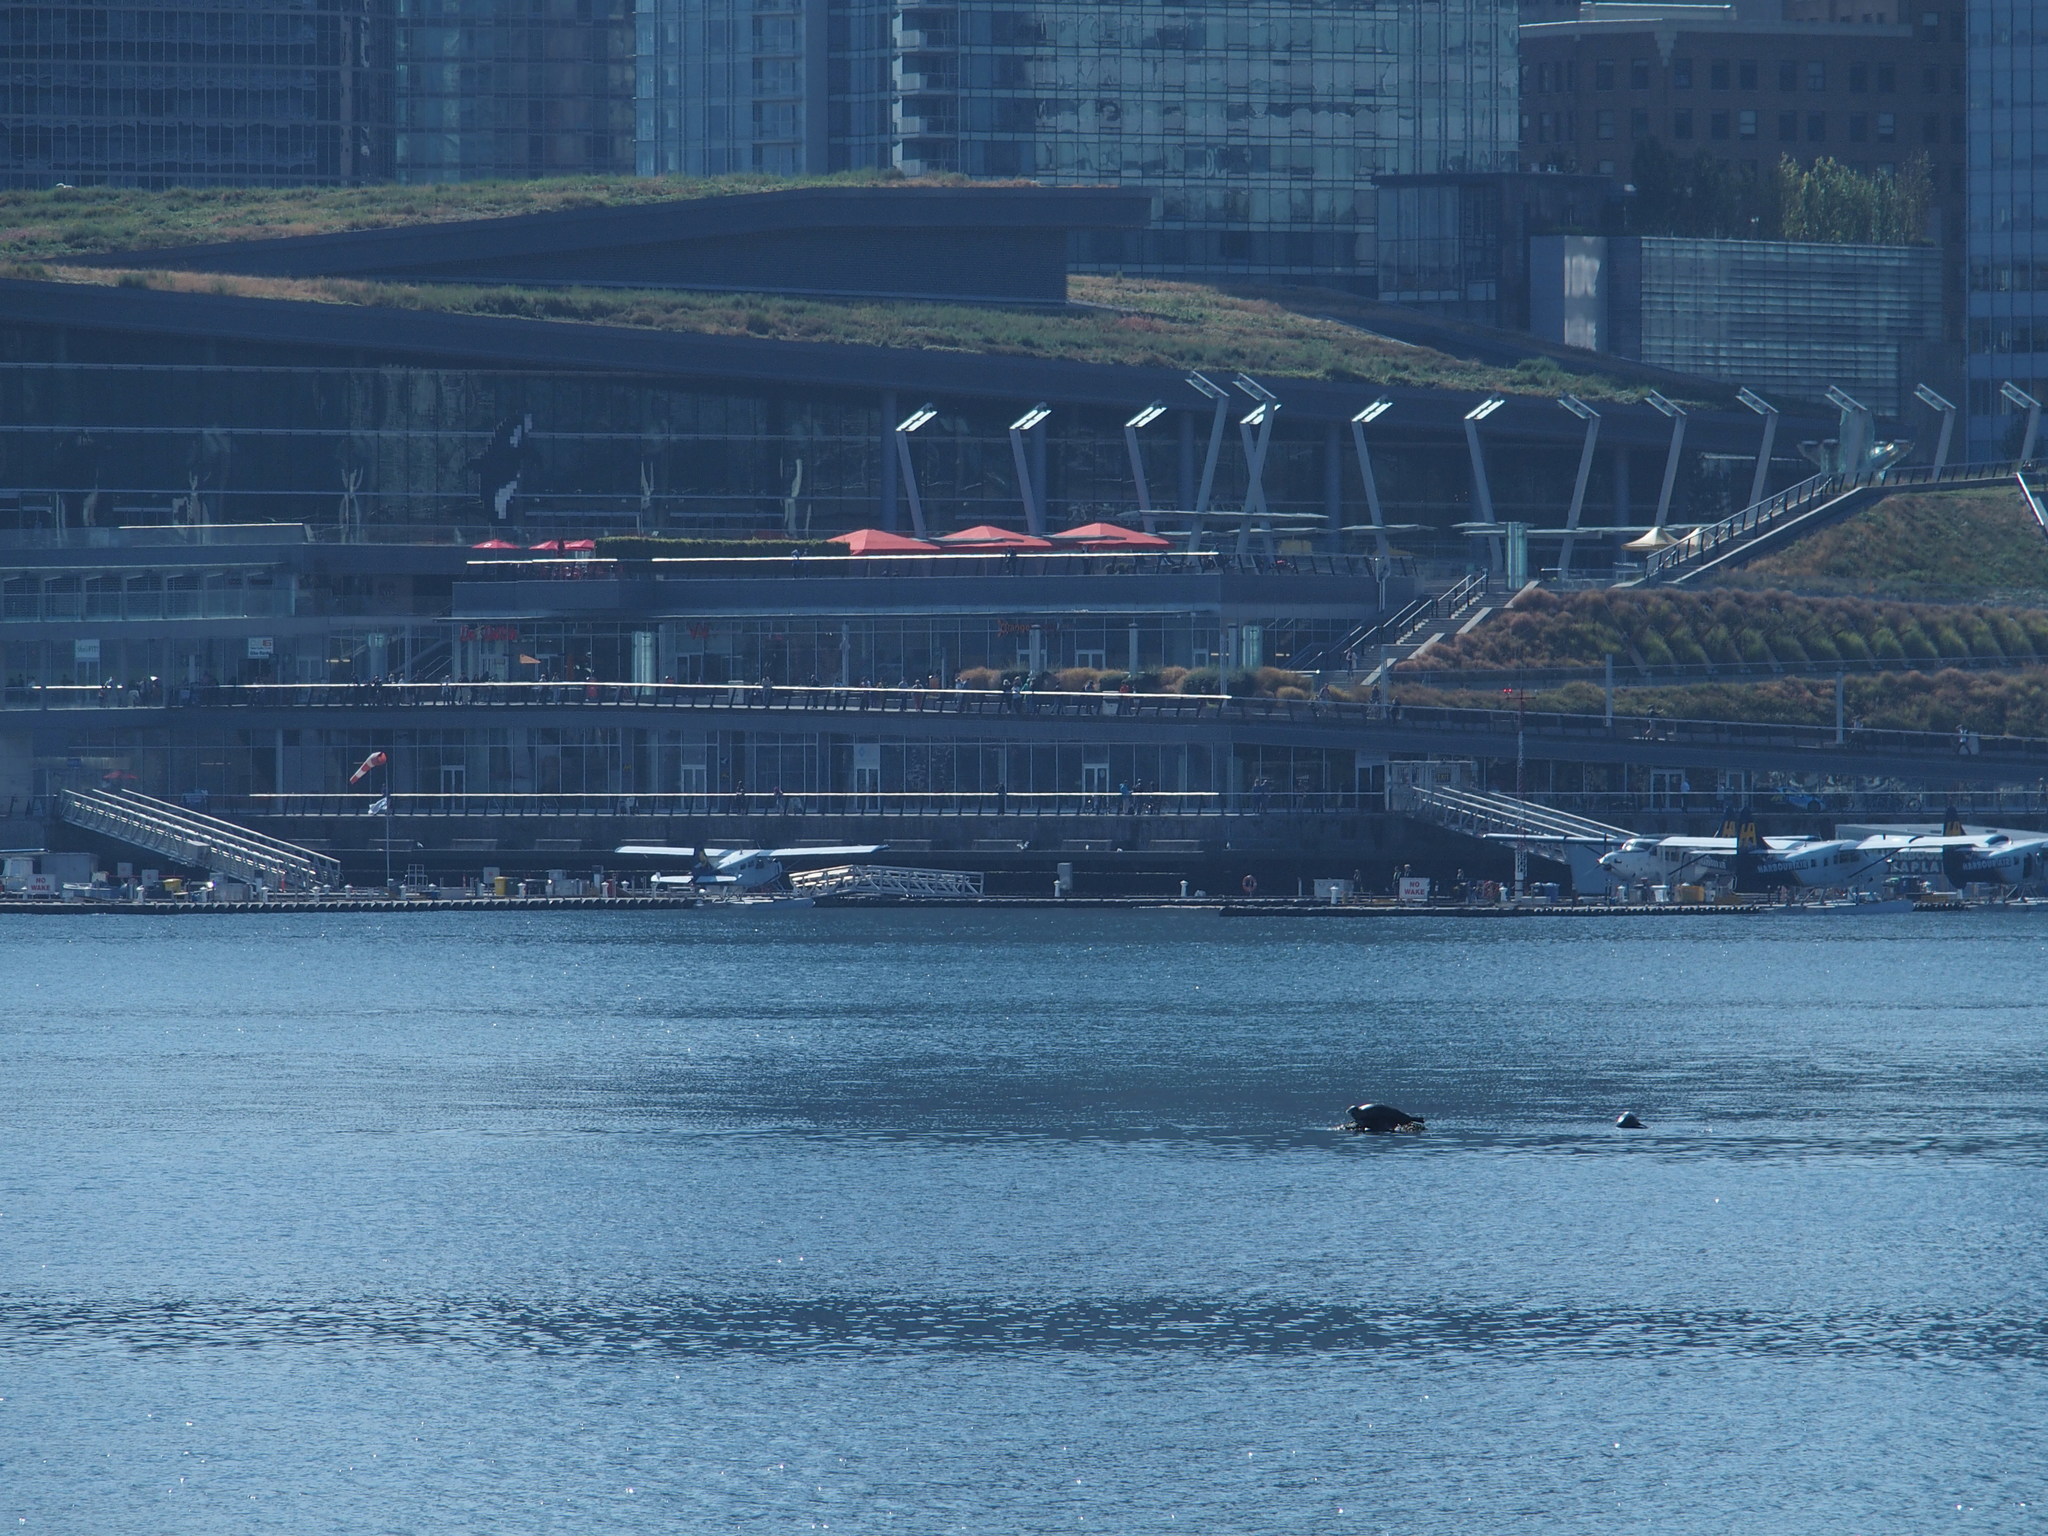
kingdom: Animalia
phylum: Chordata
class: Mammalia
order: Carnivora
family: Phocidae
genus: Phoca
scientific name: Phoca vitulina
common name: Harbor seal
